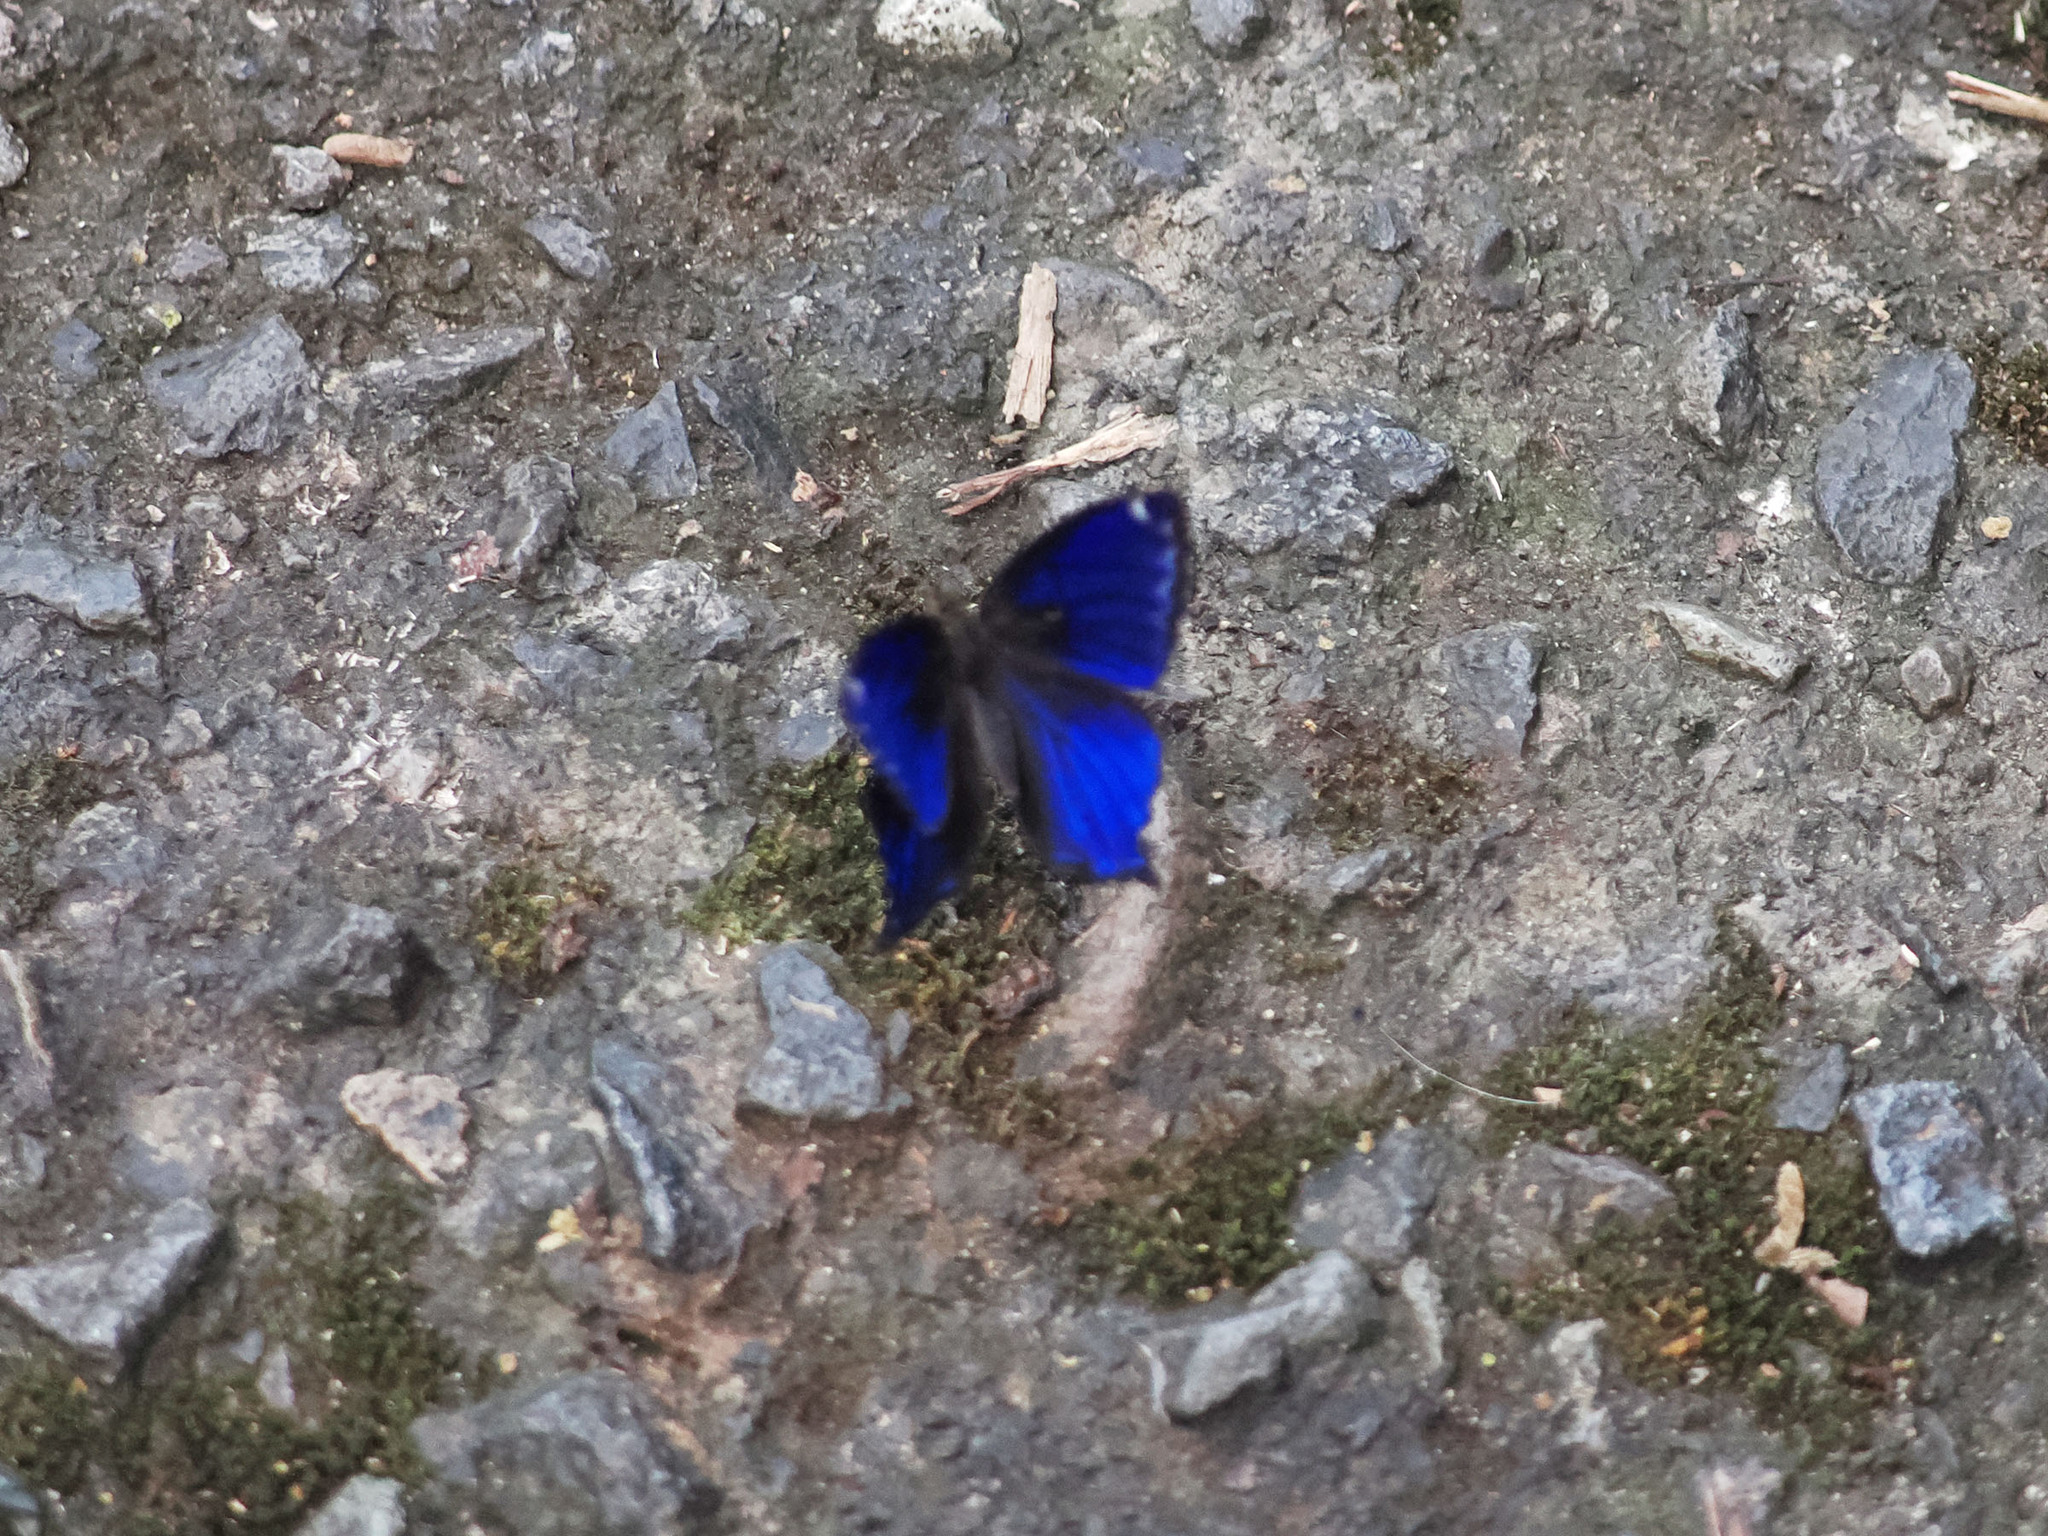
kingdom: Animalia
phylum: Arthropoda
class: Insecta
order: Lepidoptera
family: Nymphalidae
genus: Ptychandra
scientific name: Ptychandra lorquinii
